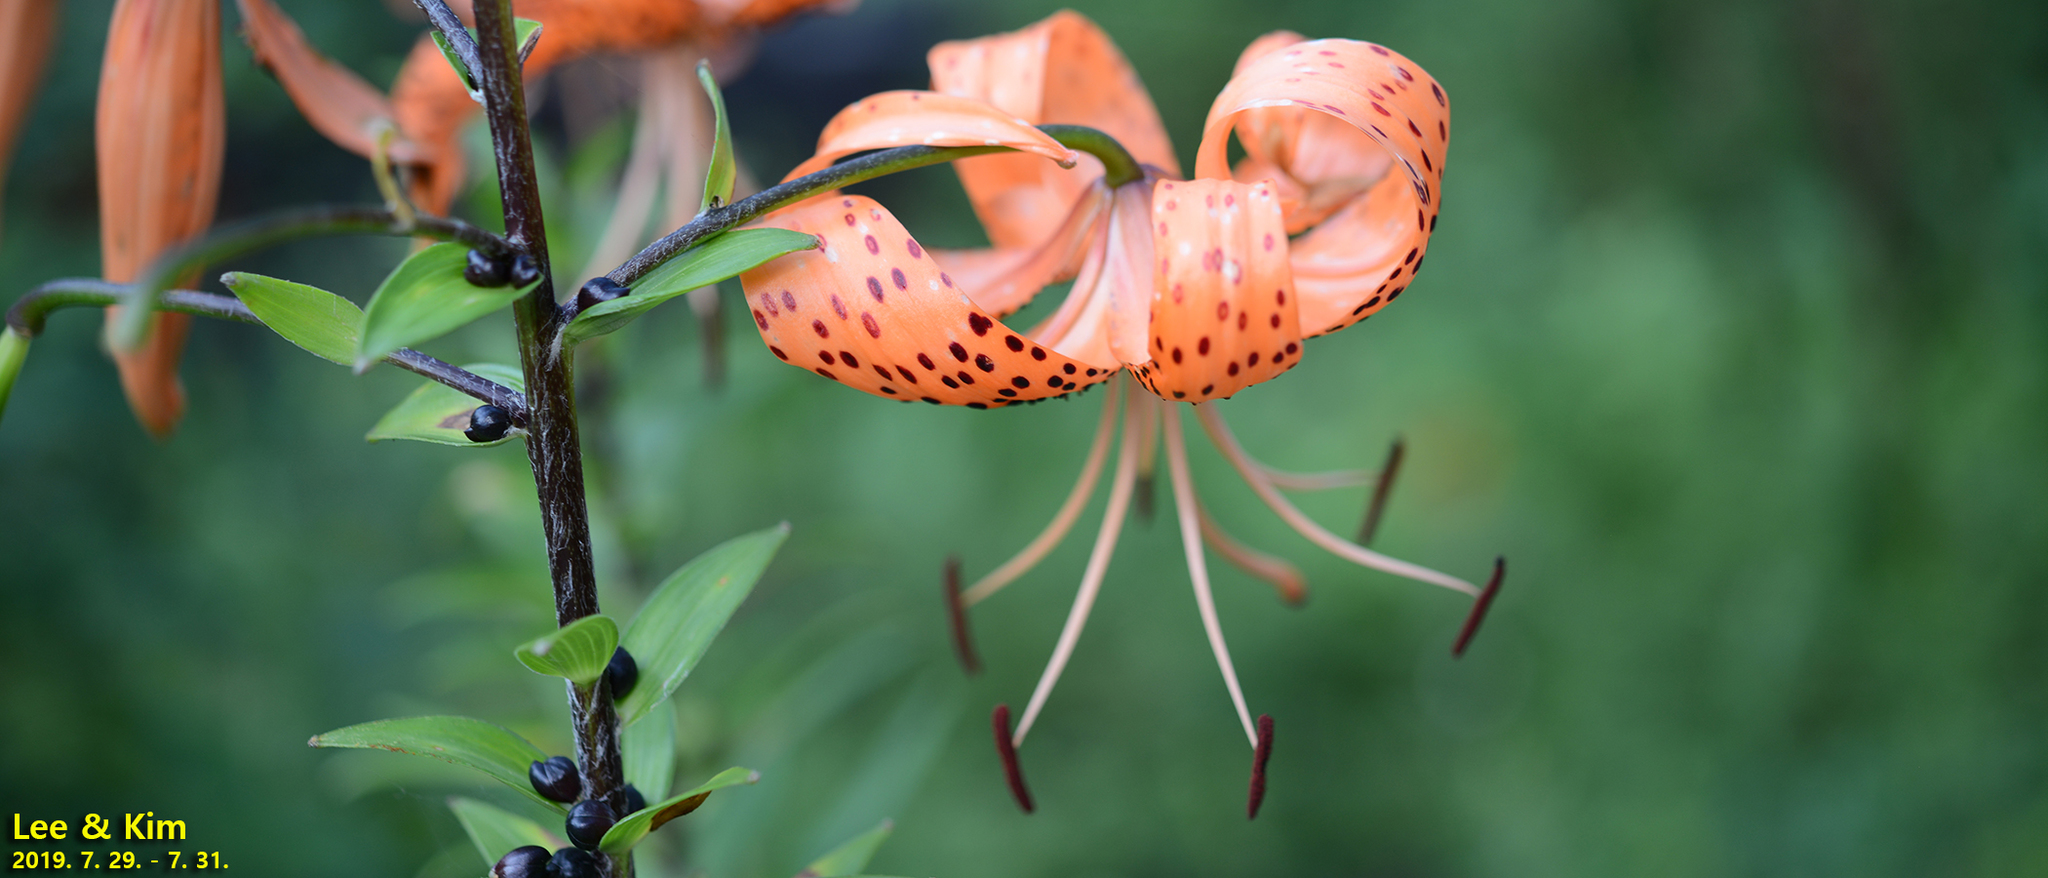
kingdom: Plantae
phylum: Tracheophyta
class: Liliopsida
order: Liliales
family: Liliaceae
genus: Lilium
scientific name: Lilium lancifolium
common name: Tiger lily
